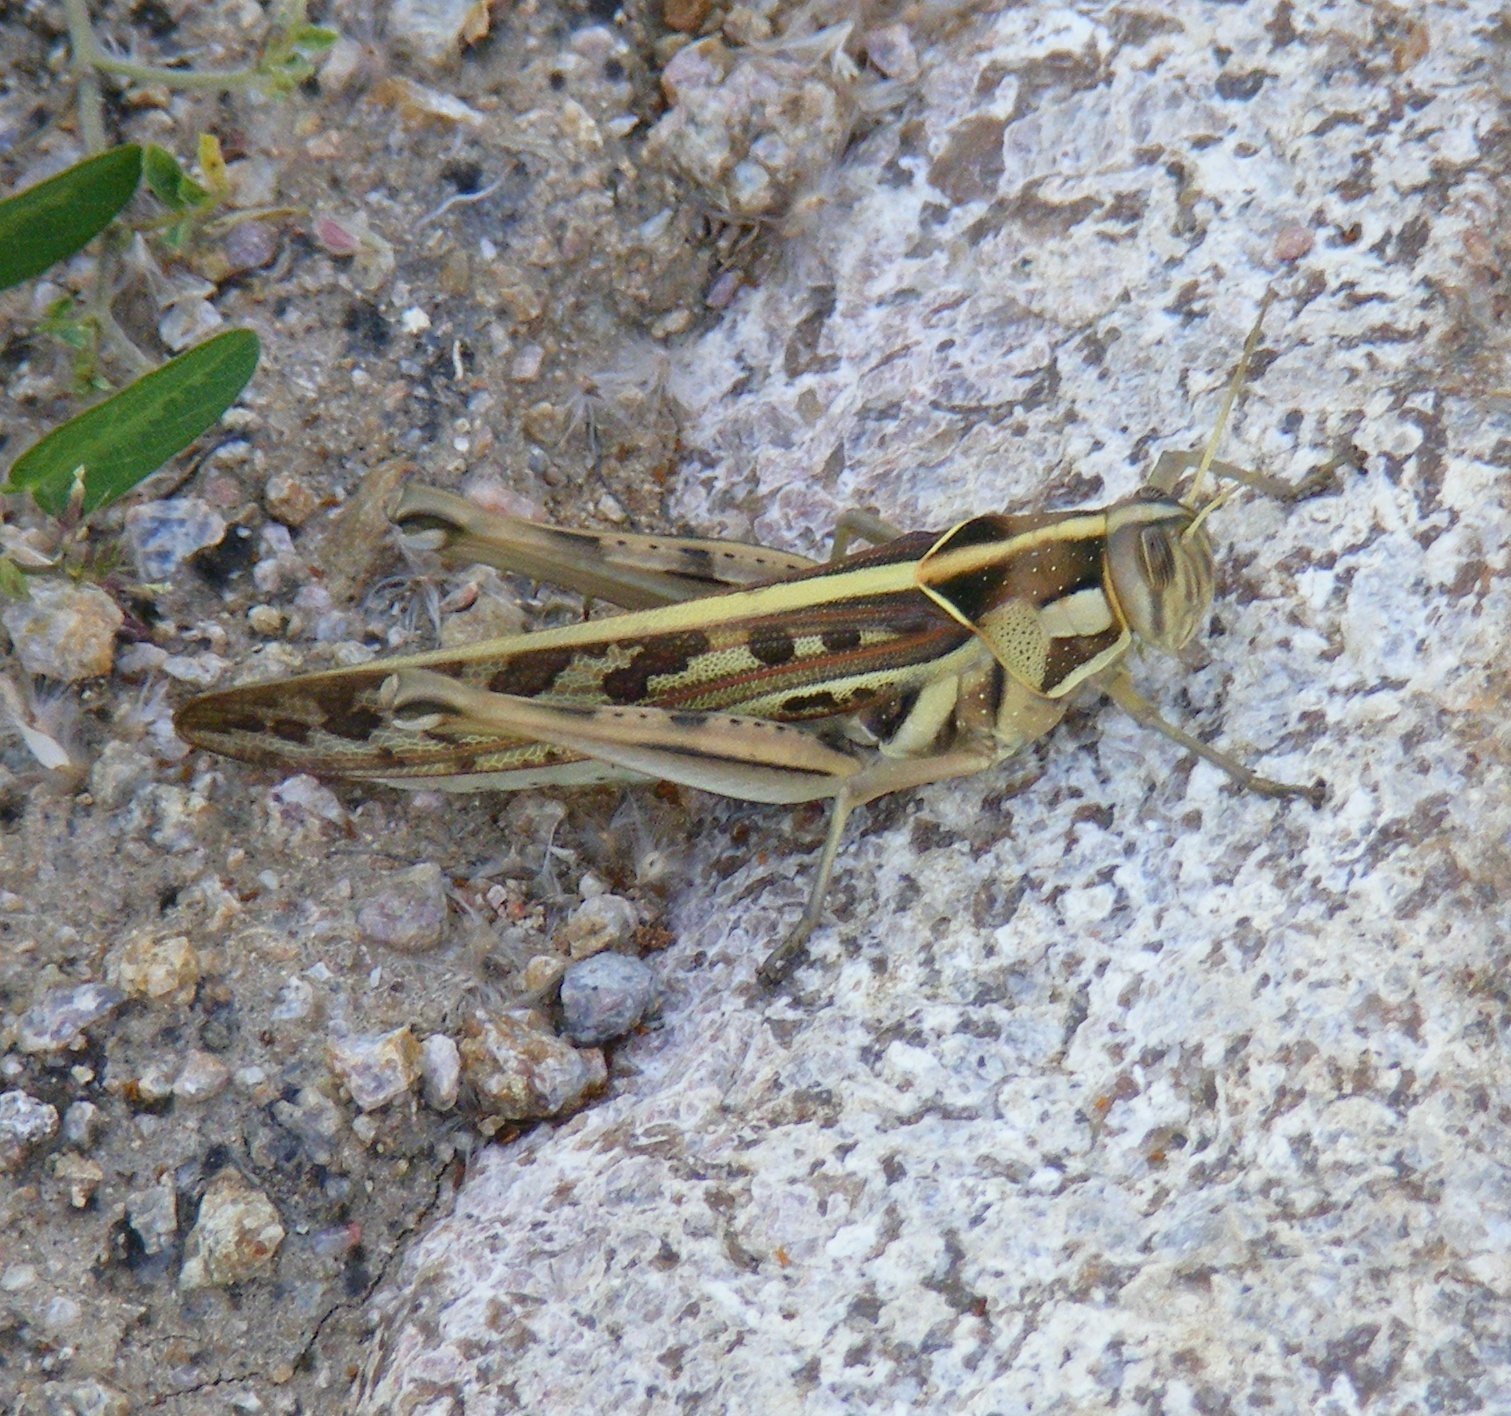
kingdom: Animalia
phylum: Arthropoda
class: Insecta
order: Orthoptera
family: Acrididae
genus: Cyrtacanthacris
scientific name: Cyrtacanthacris tatarica
